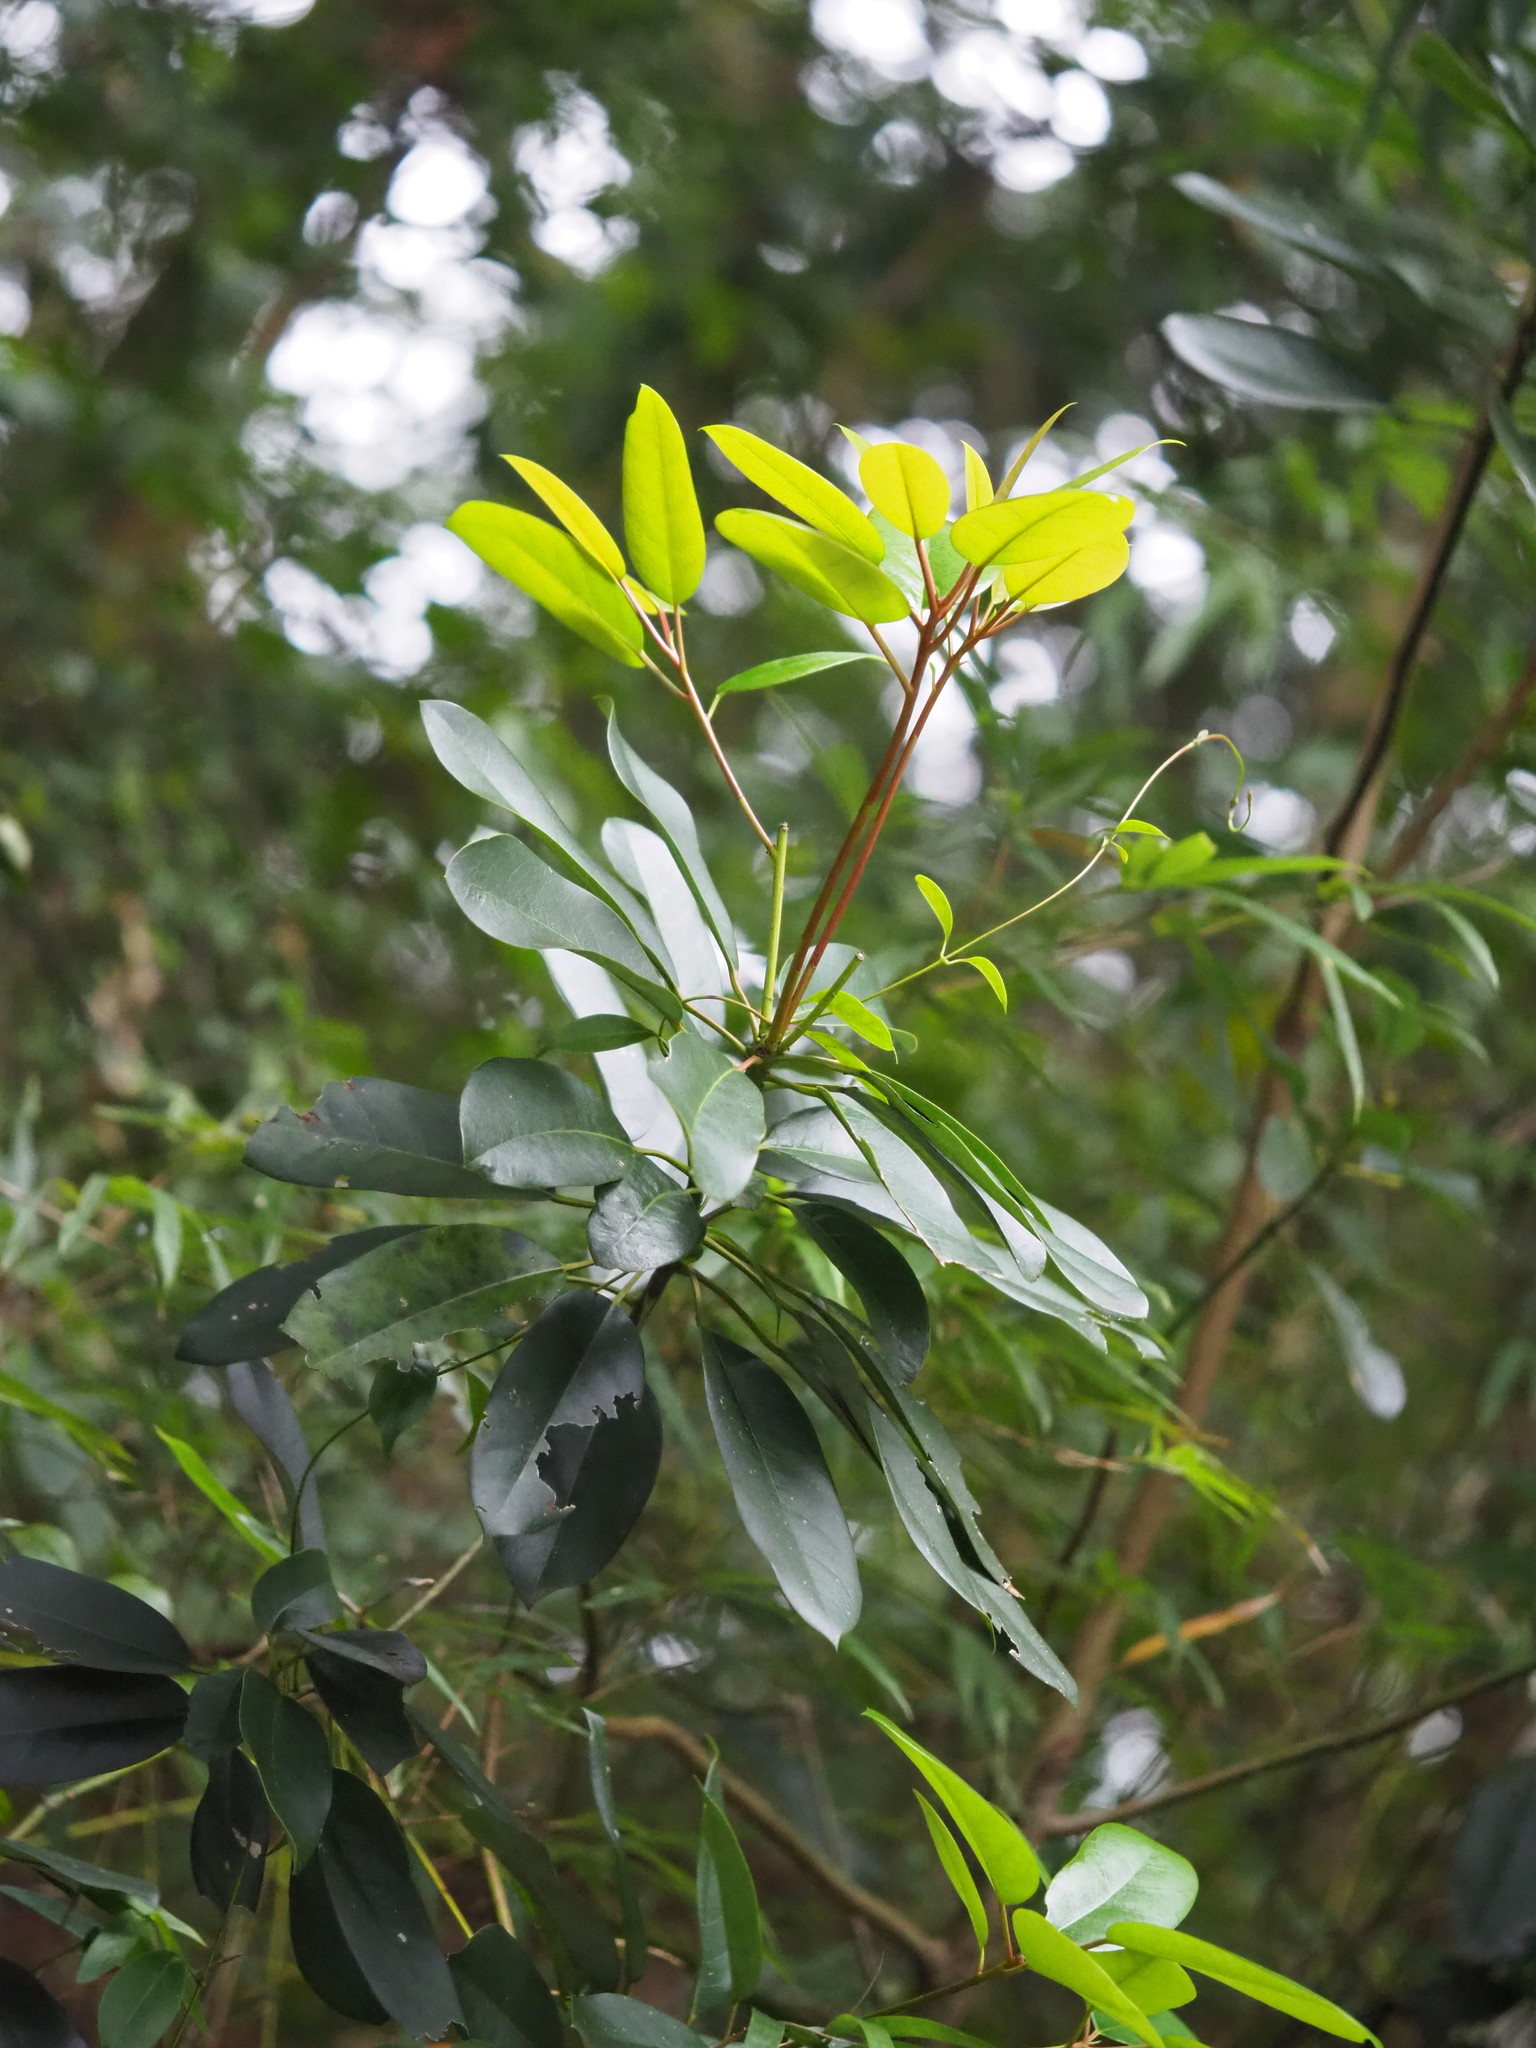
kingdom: Plantae
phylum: Tracheophyta
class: Magnoliopsida
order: Saxifragales
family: Daphniphyllaceae
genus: Daphniphyllum
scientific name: Daphniphyllum pentandrum
